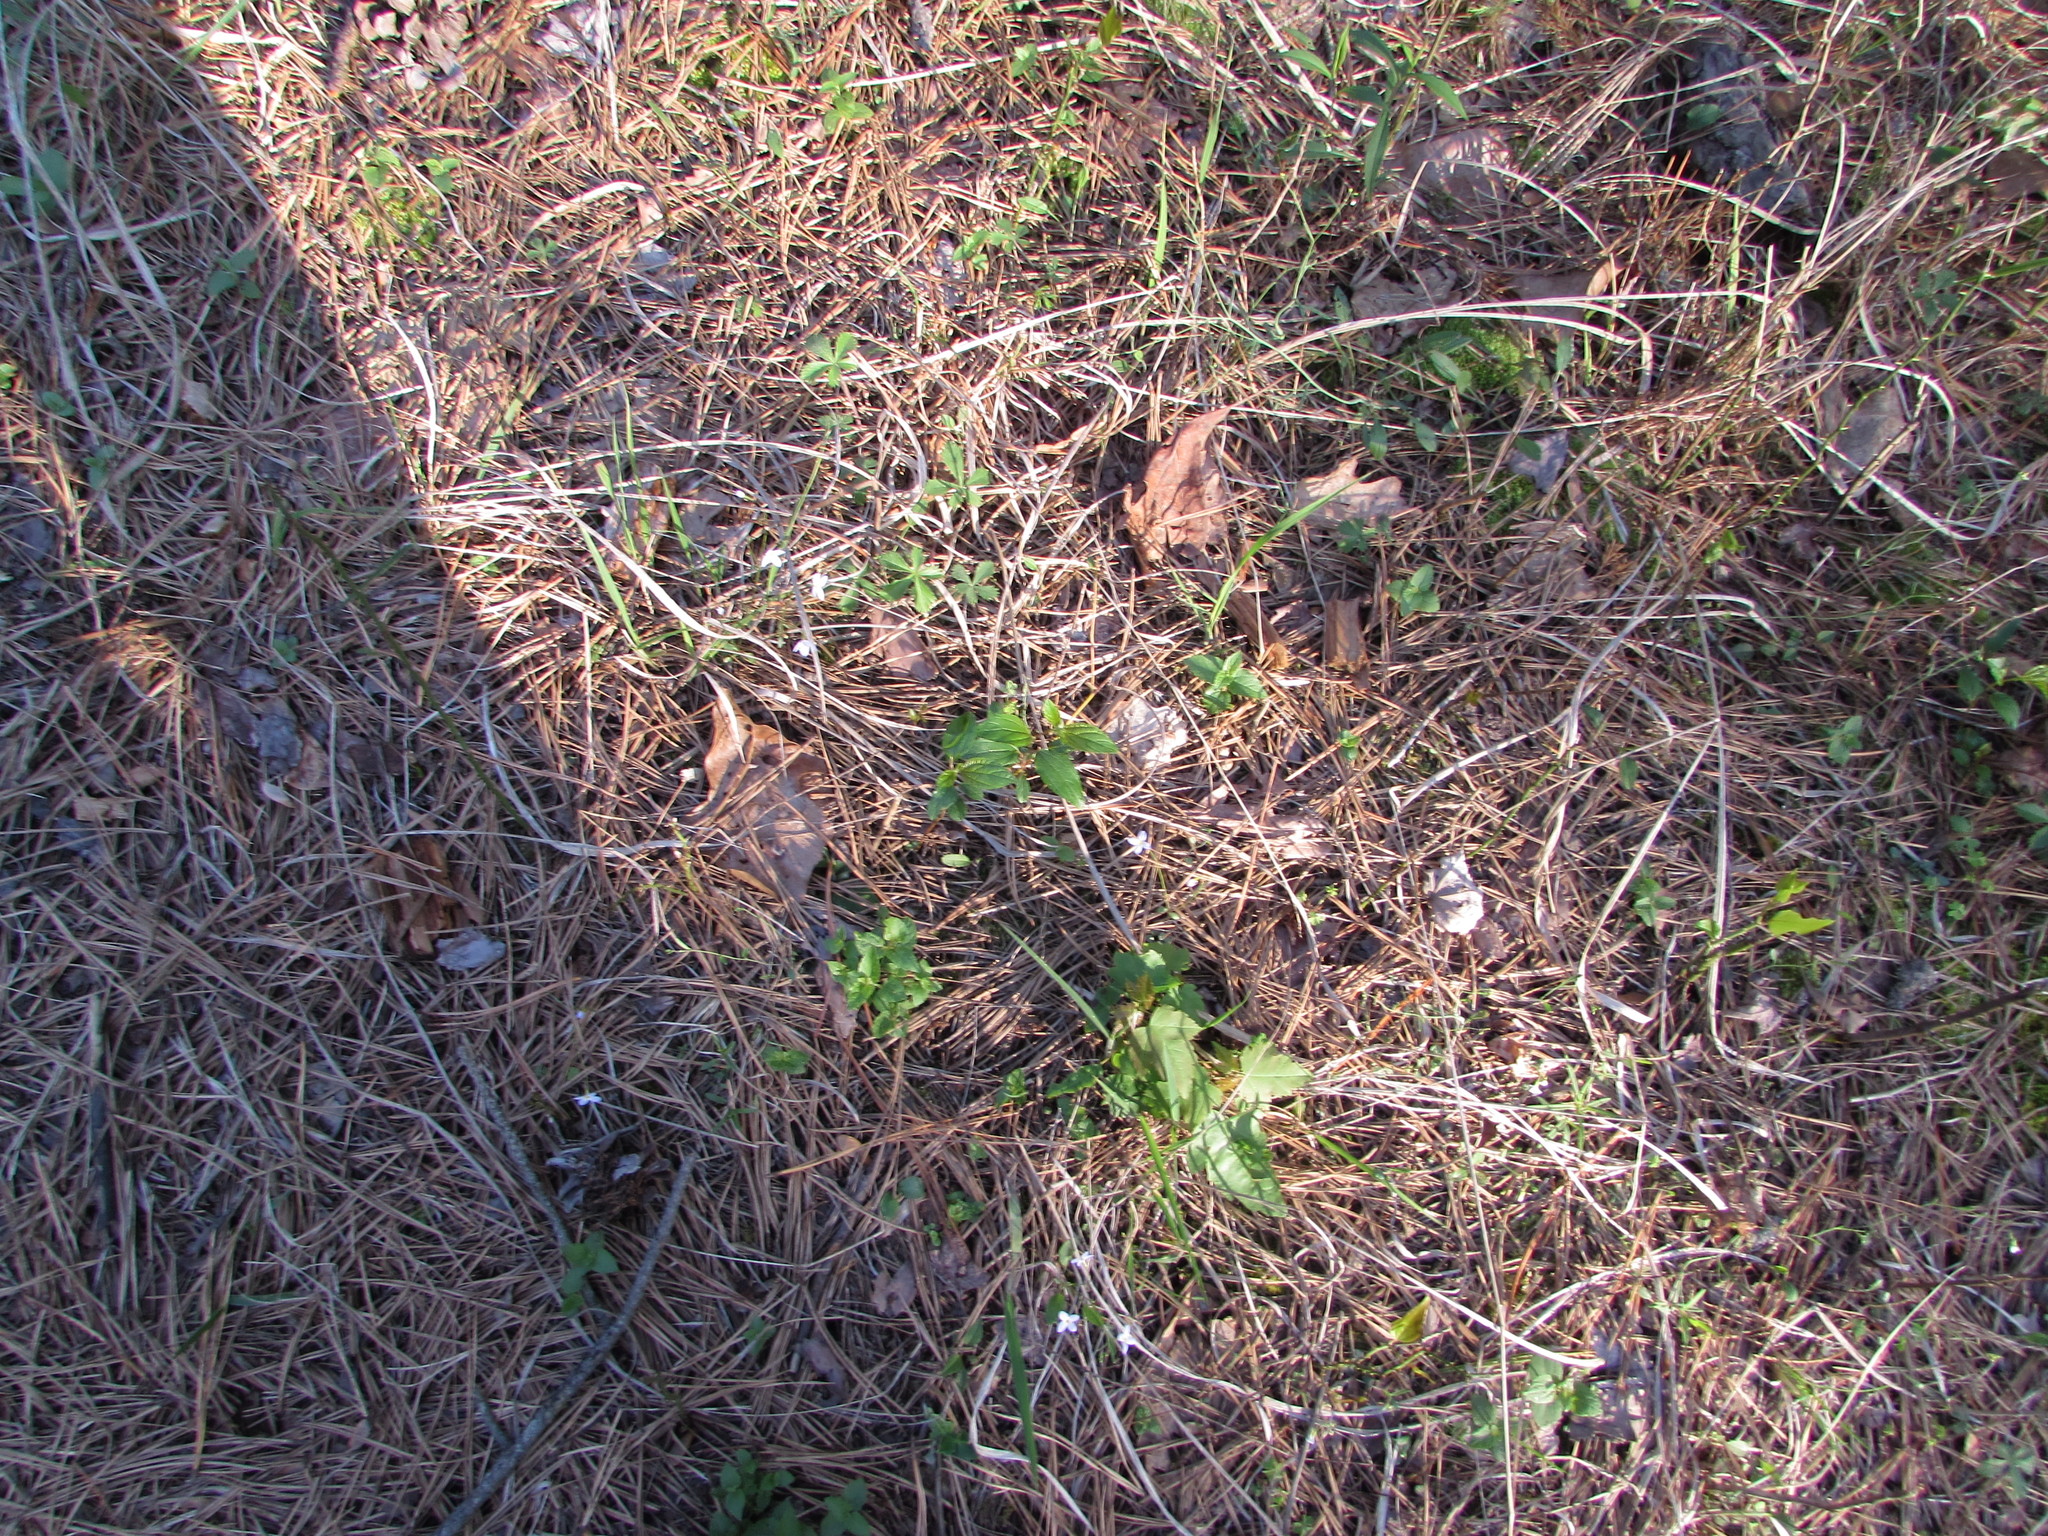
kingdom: Plantae
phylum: Tracheophyta
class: Magnoliopsida
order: Rosales
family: Rhamnaceae
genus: Ceanothus
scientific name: Ceanothus americanus
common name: Redroot
